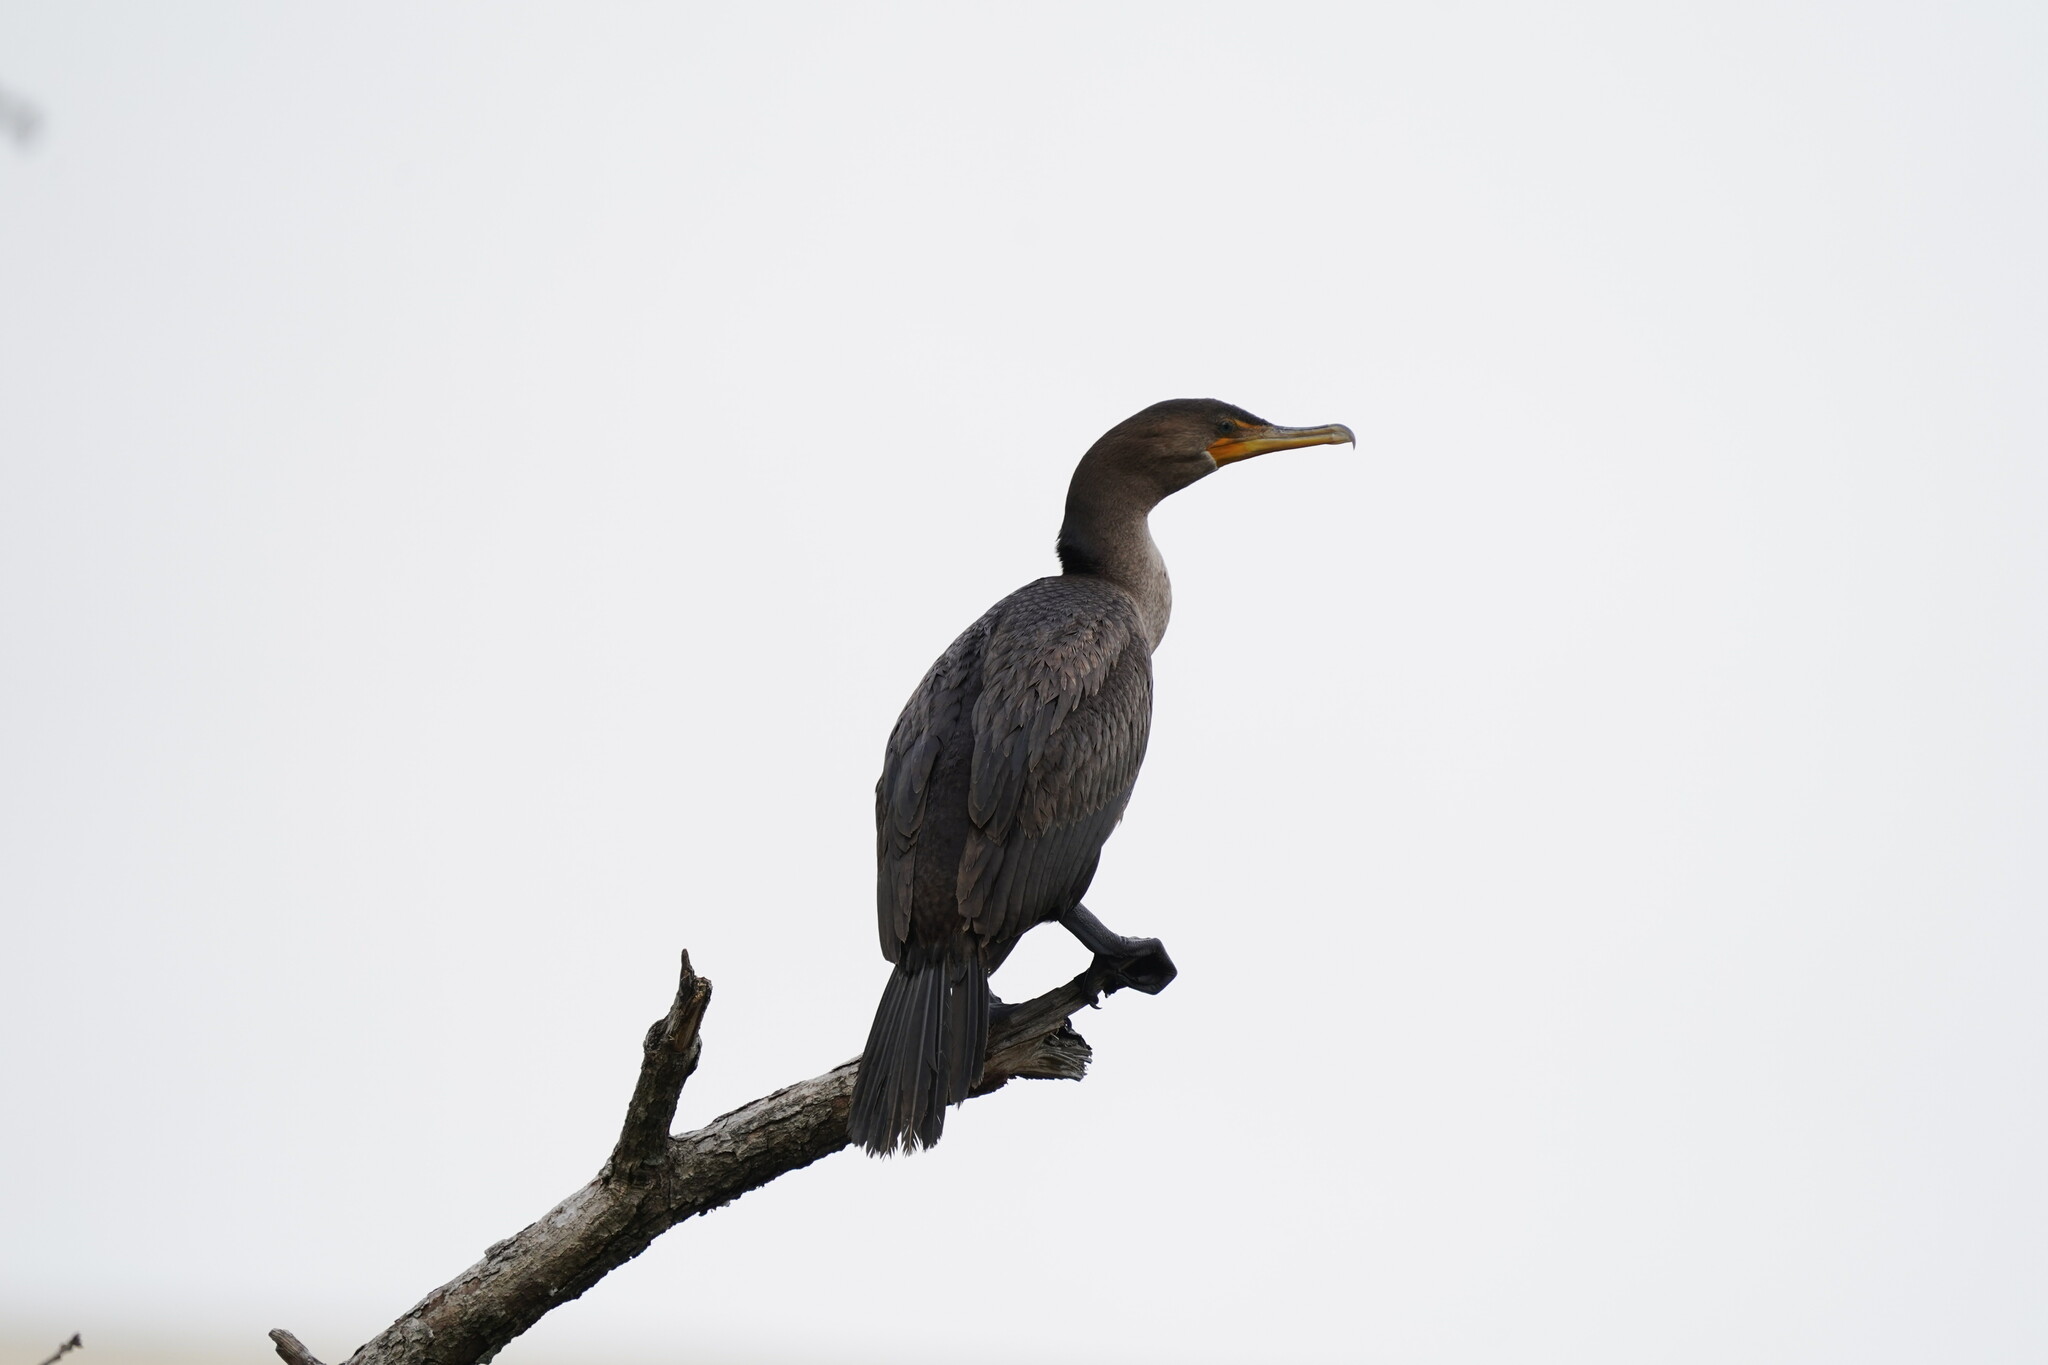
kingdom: Animalia
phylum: Chordata
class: Aves
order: Suliformes
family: Phalacrocoracidae
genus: Phalacrocorax
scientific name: Phalacrocorax brasilianus
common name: Neotropic cormorant
